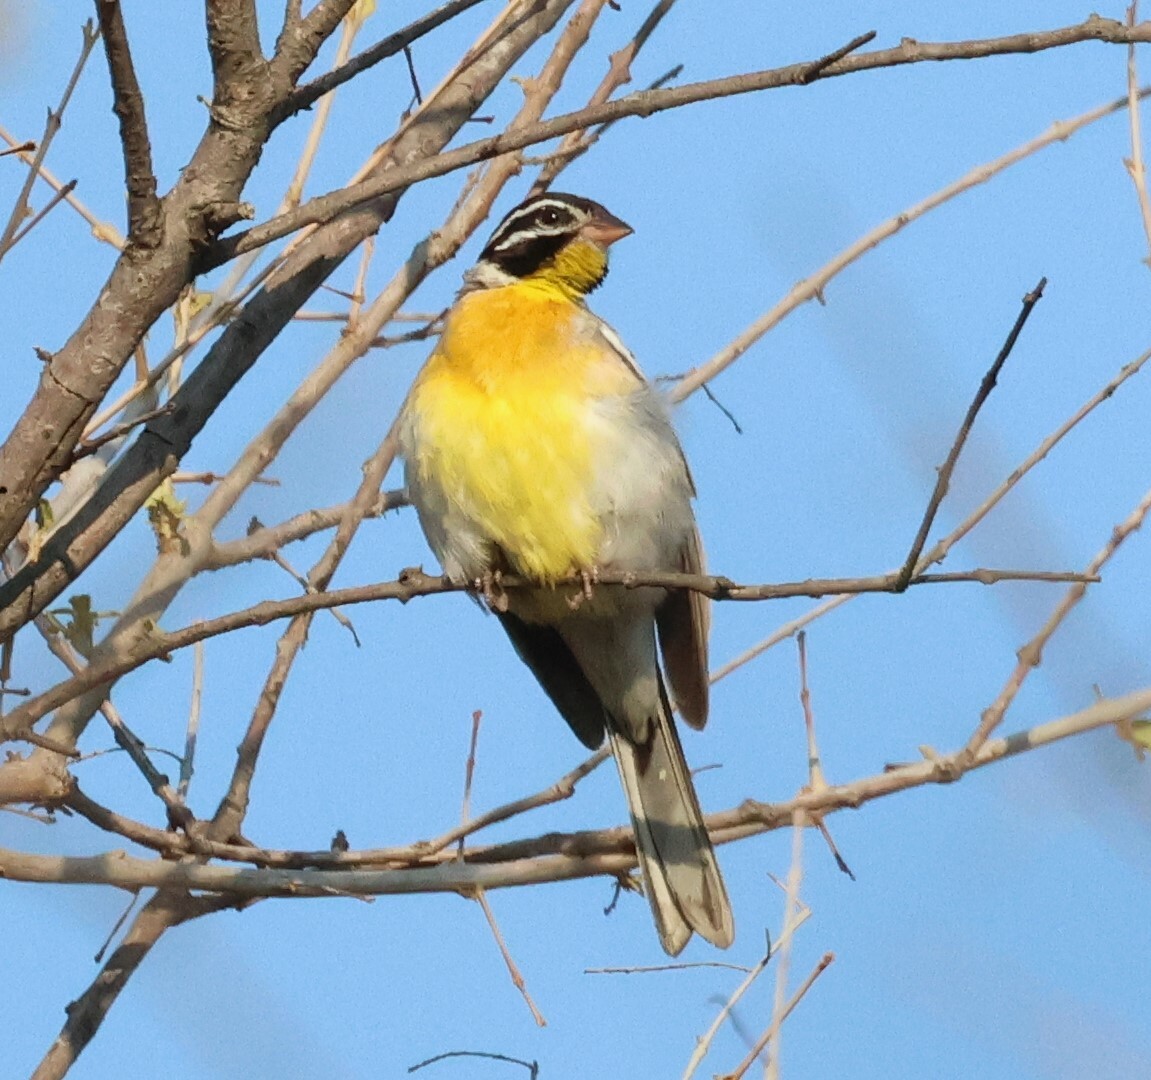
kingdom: Animalia
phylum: Chordata
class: Aves
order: Passeriformes
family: Emberizidae
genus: Emberiza
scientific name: Emberiza flaviventris
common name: Golden-breasted bunting
